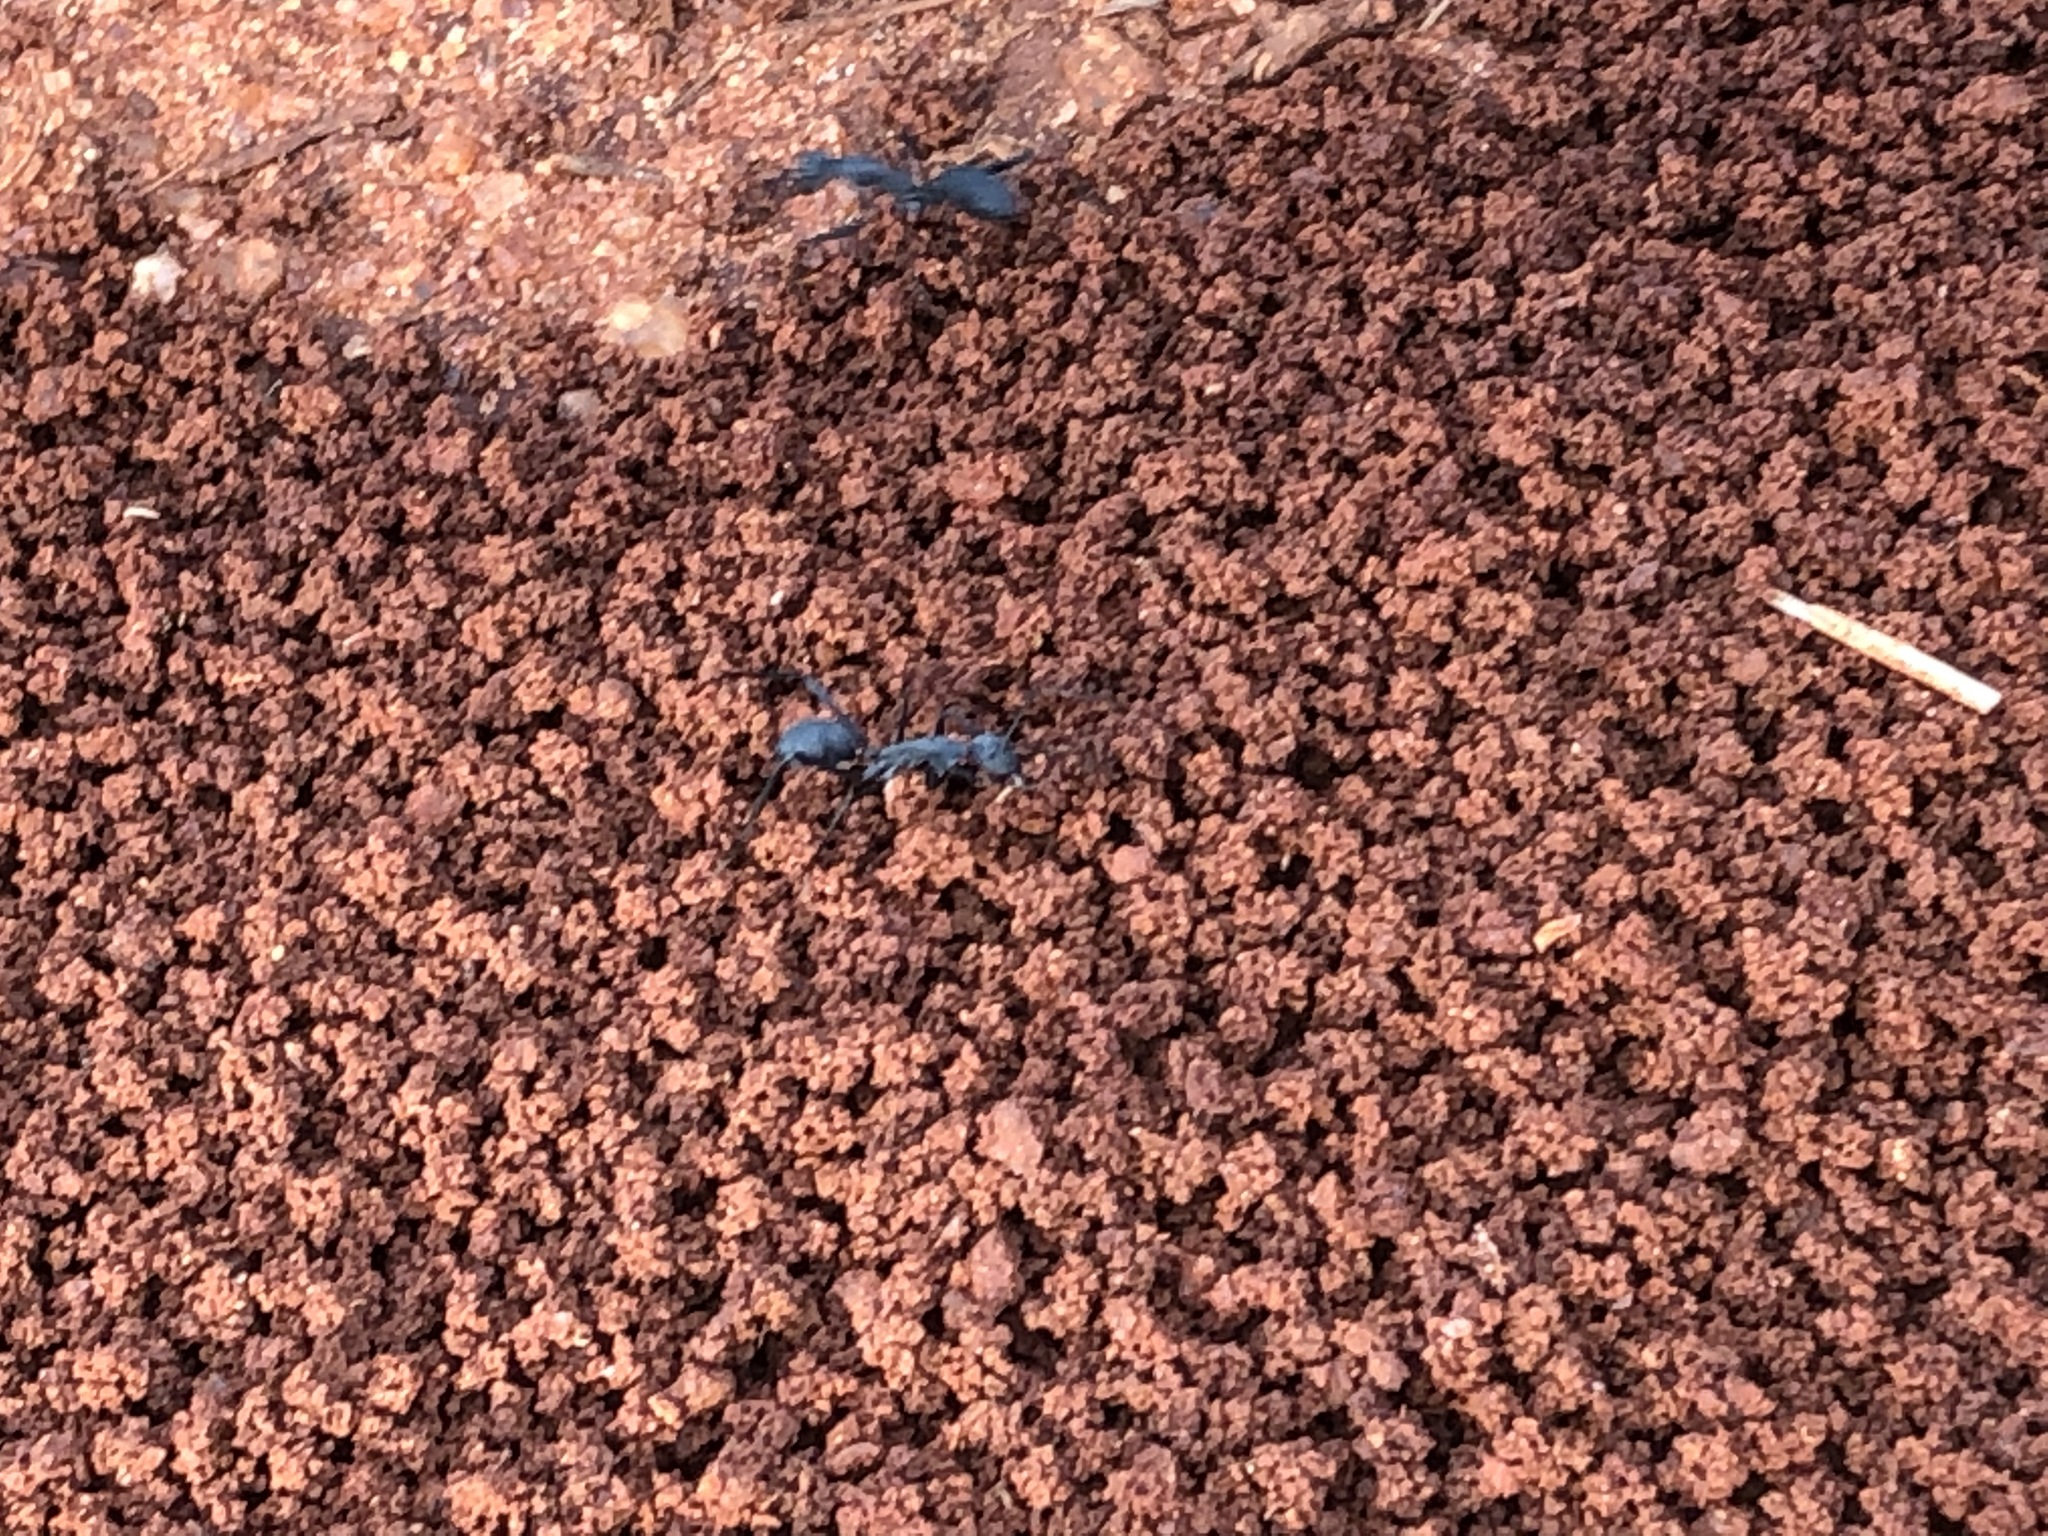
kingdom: Animalia
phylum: Arthropoda
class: Insecta
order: Hymenoptera
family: Formicidae
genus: Camponotus
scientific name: Camponotus eugeniae
